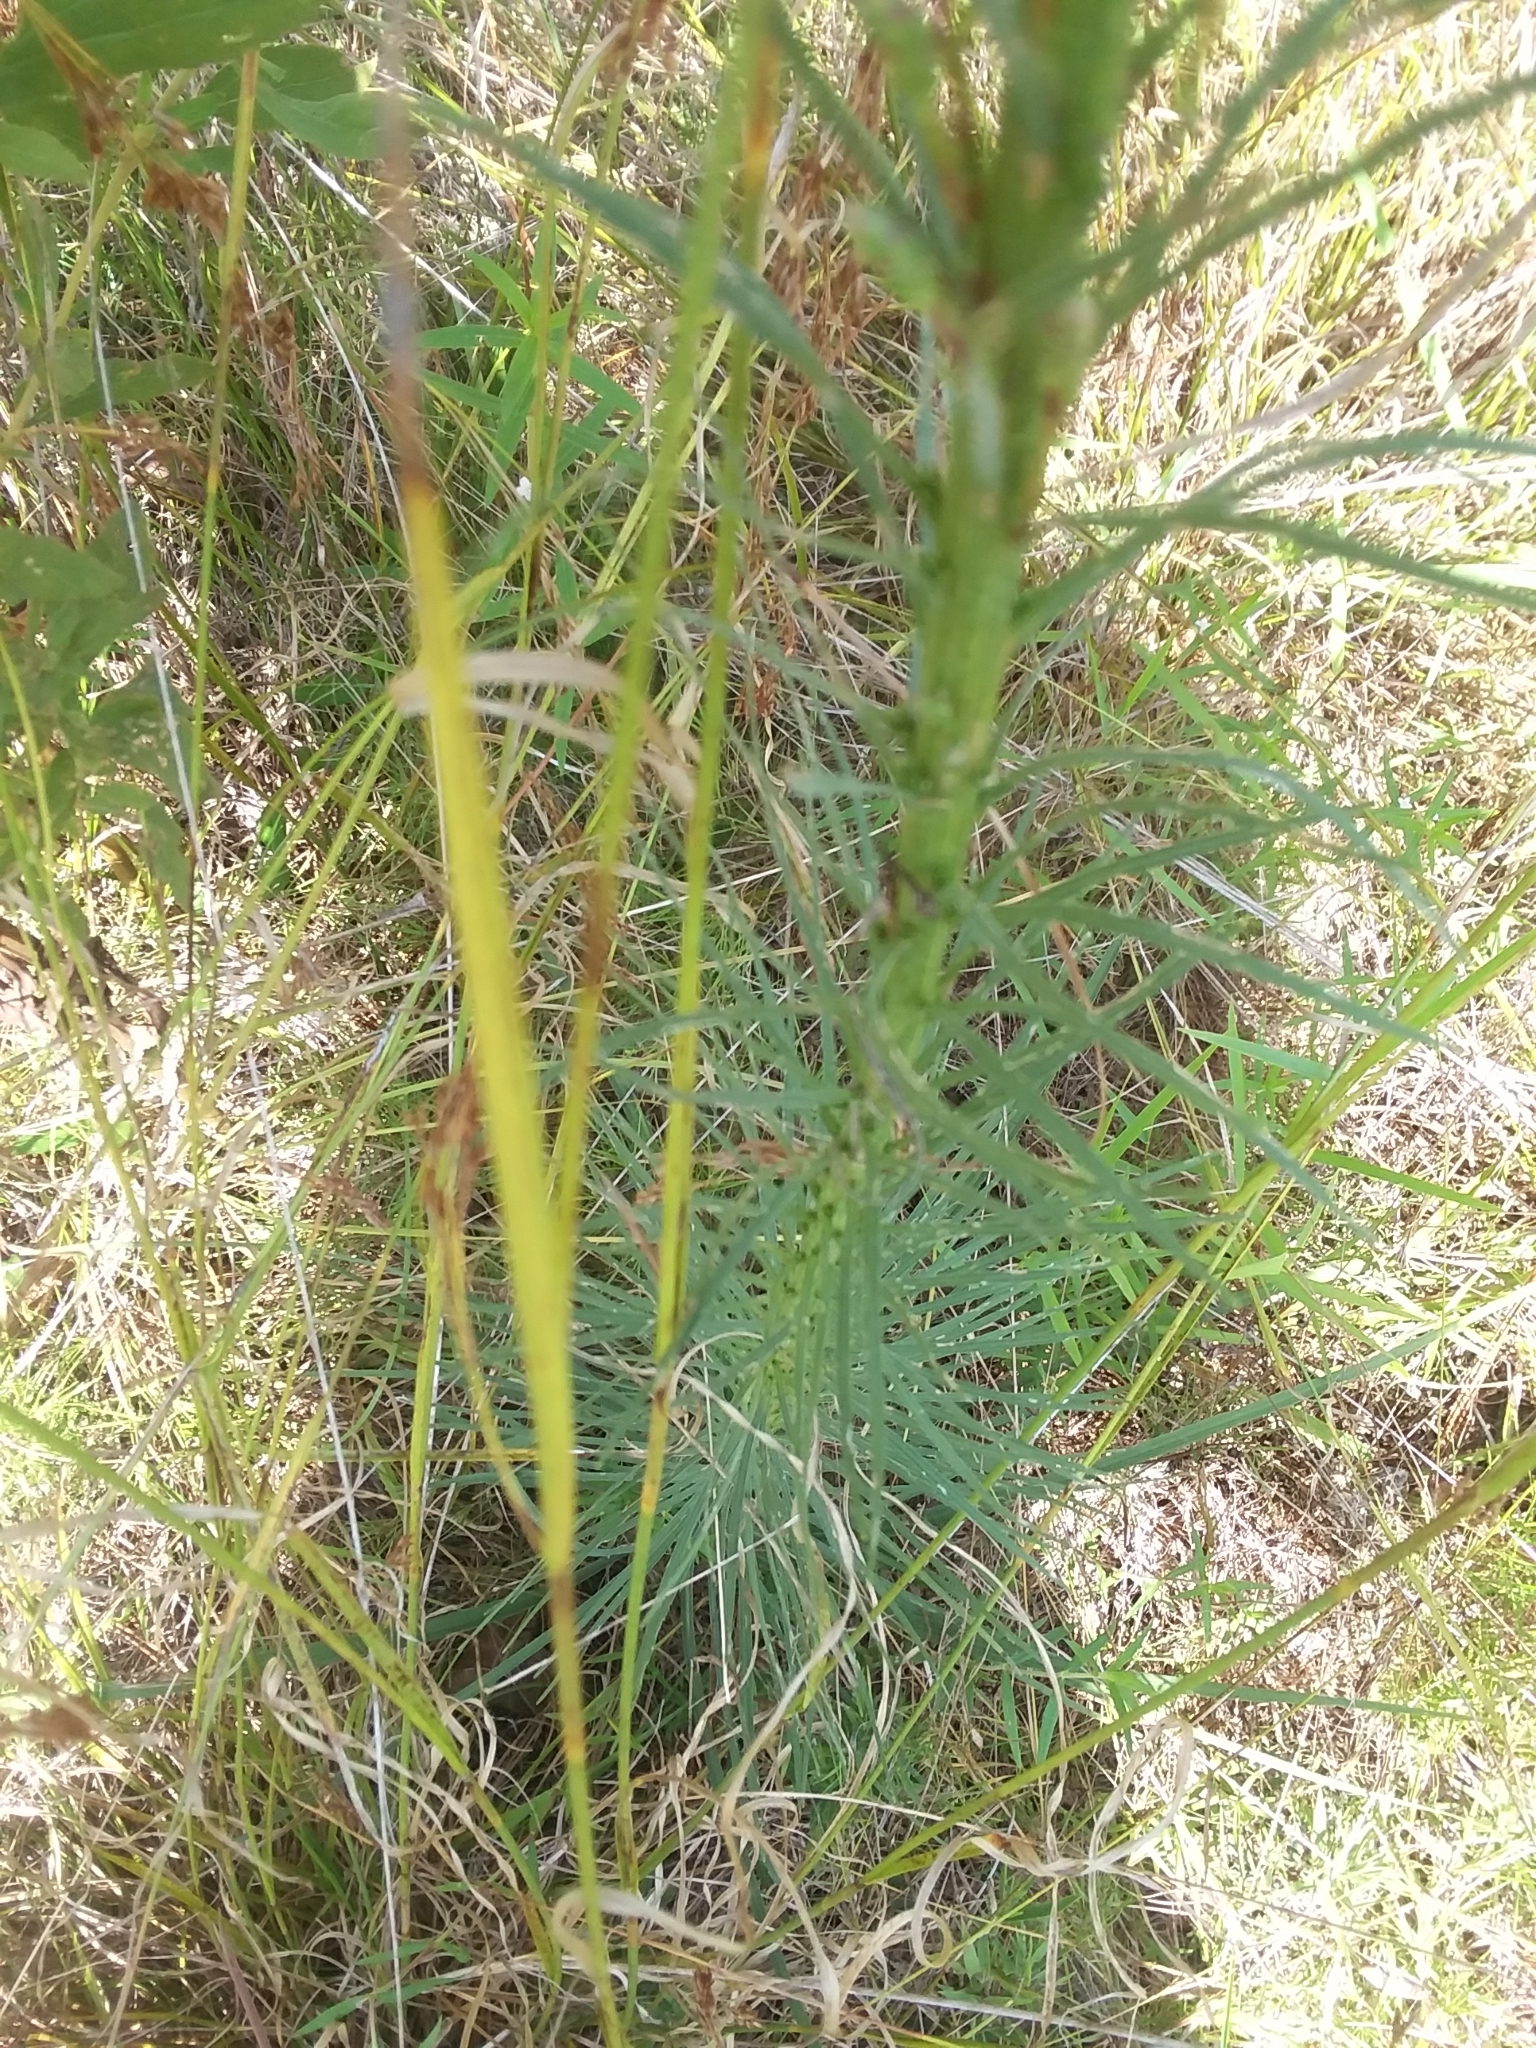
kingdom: Plantae
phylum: Tracheophyta
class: Magnoliopsida
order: Asterales
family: Asteraceae
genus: Liatris
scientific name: Liatris spicata
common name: Florist gayfeather
